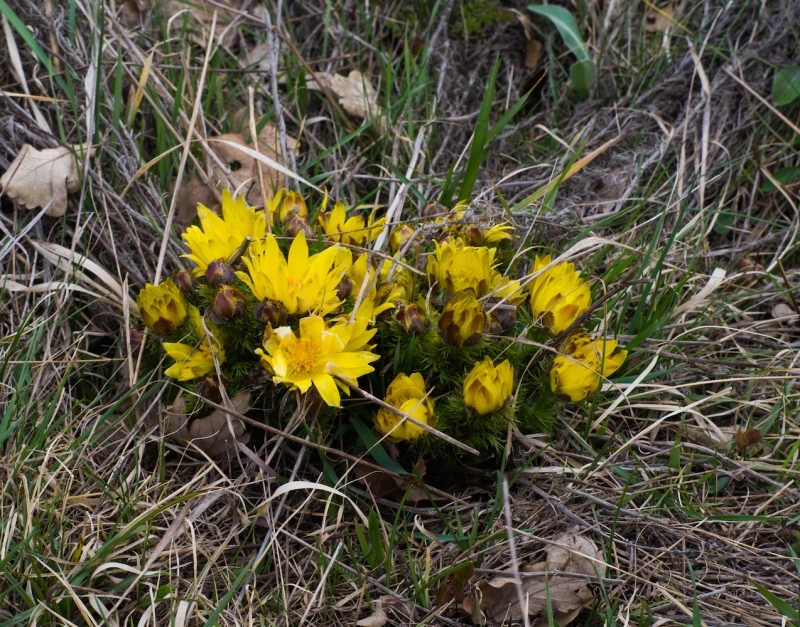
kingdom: Plantae
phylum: Tracheophyta
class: Magnoliopsida
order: Ranunculales
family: Ranunculaceae
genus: Adonis
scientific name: Adonis vernalis
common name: Yellow pheasants-eye
